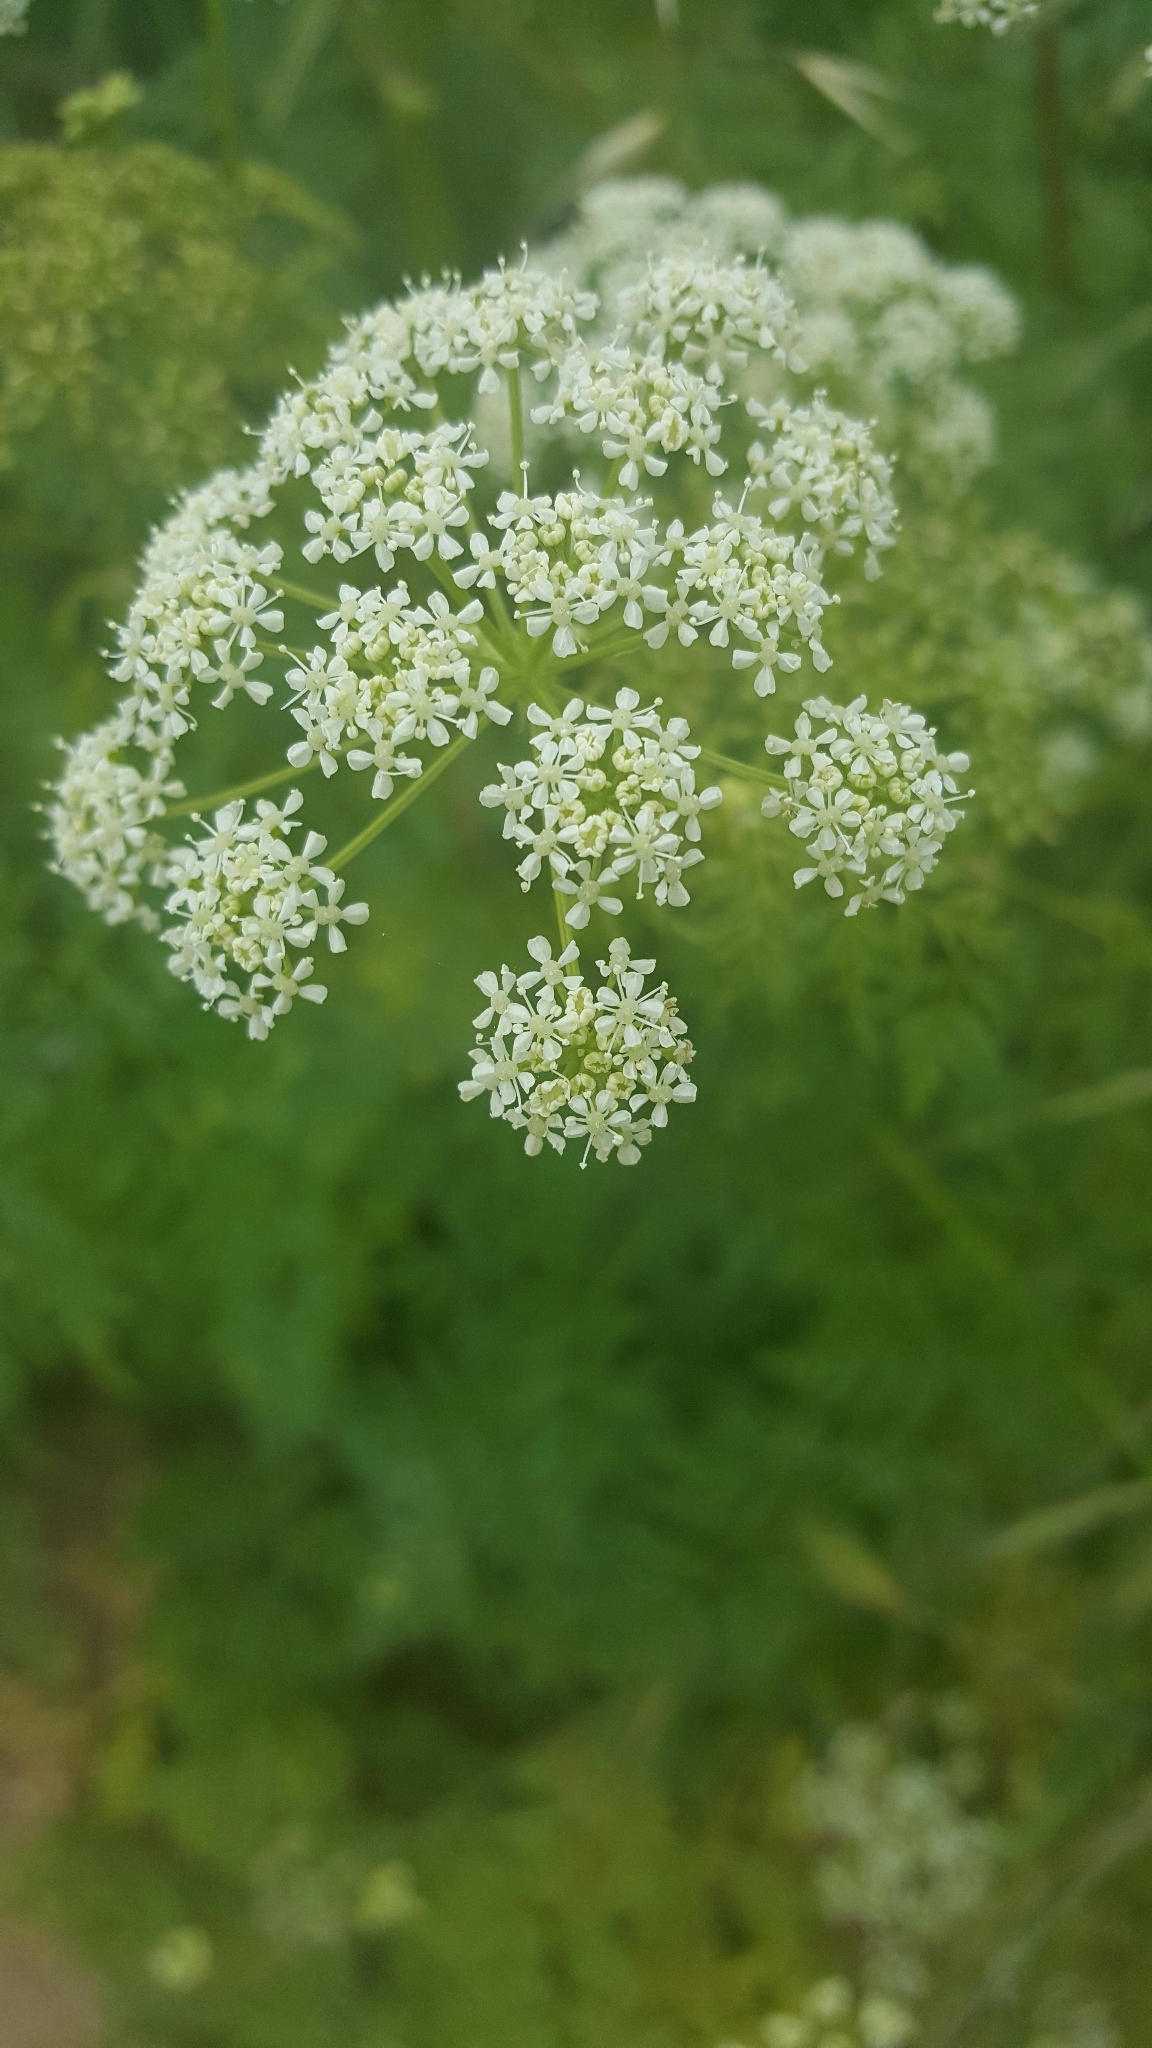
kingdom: Plantae
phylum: Tracheophyta
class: Magnoliopsida
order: Apiales
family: Apiaceae
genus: Conium
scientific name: Conium maculatum
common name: Hemlock
